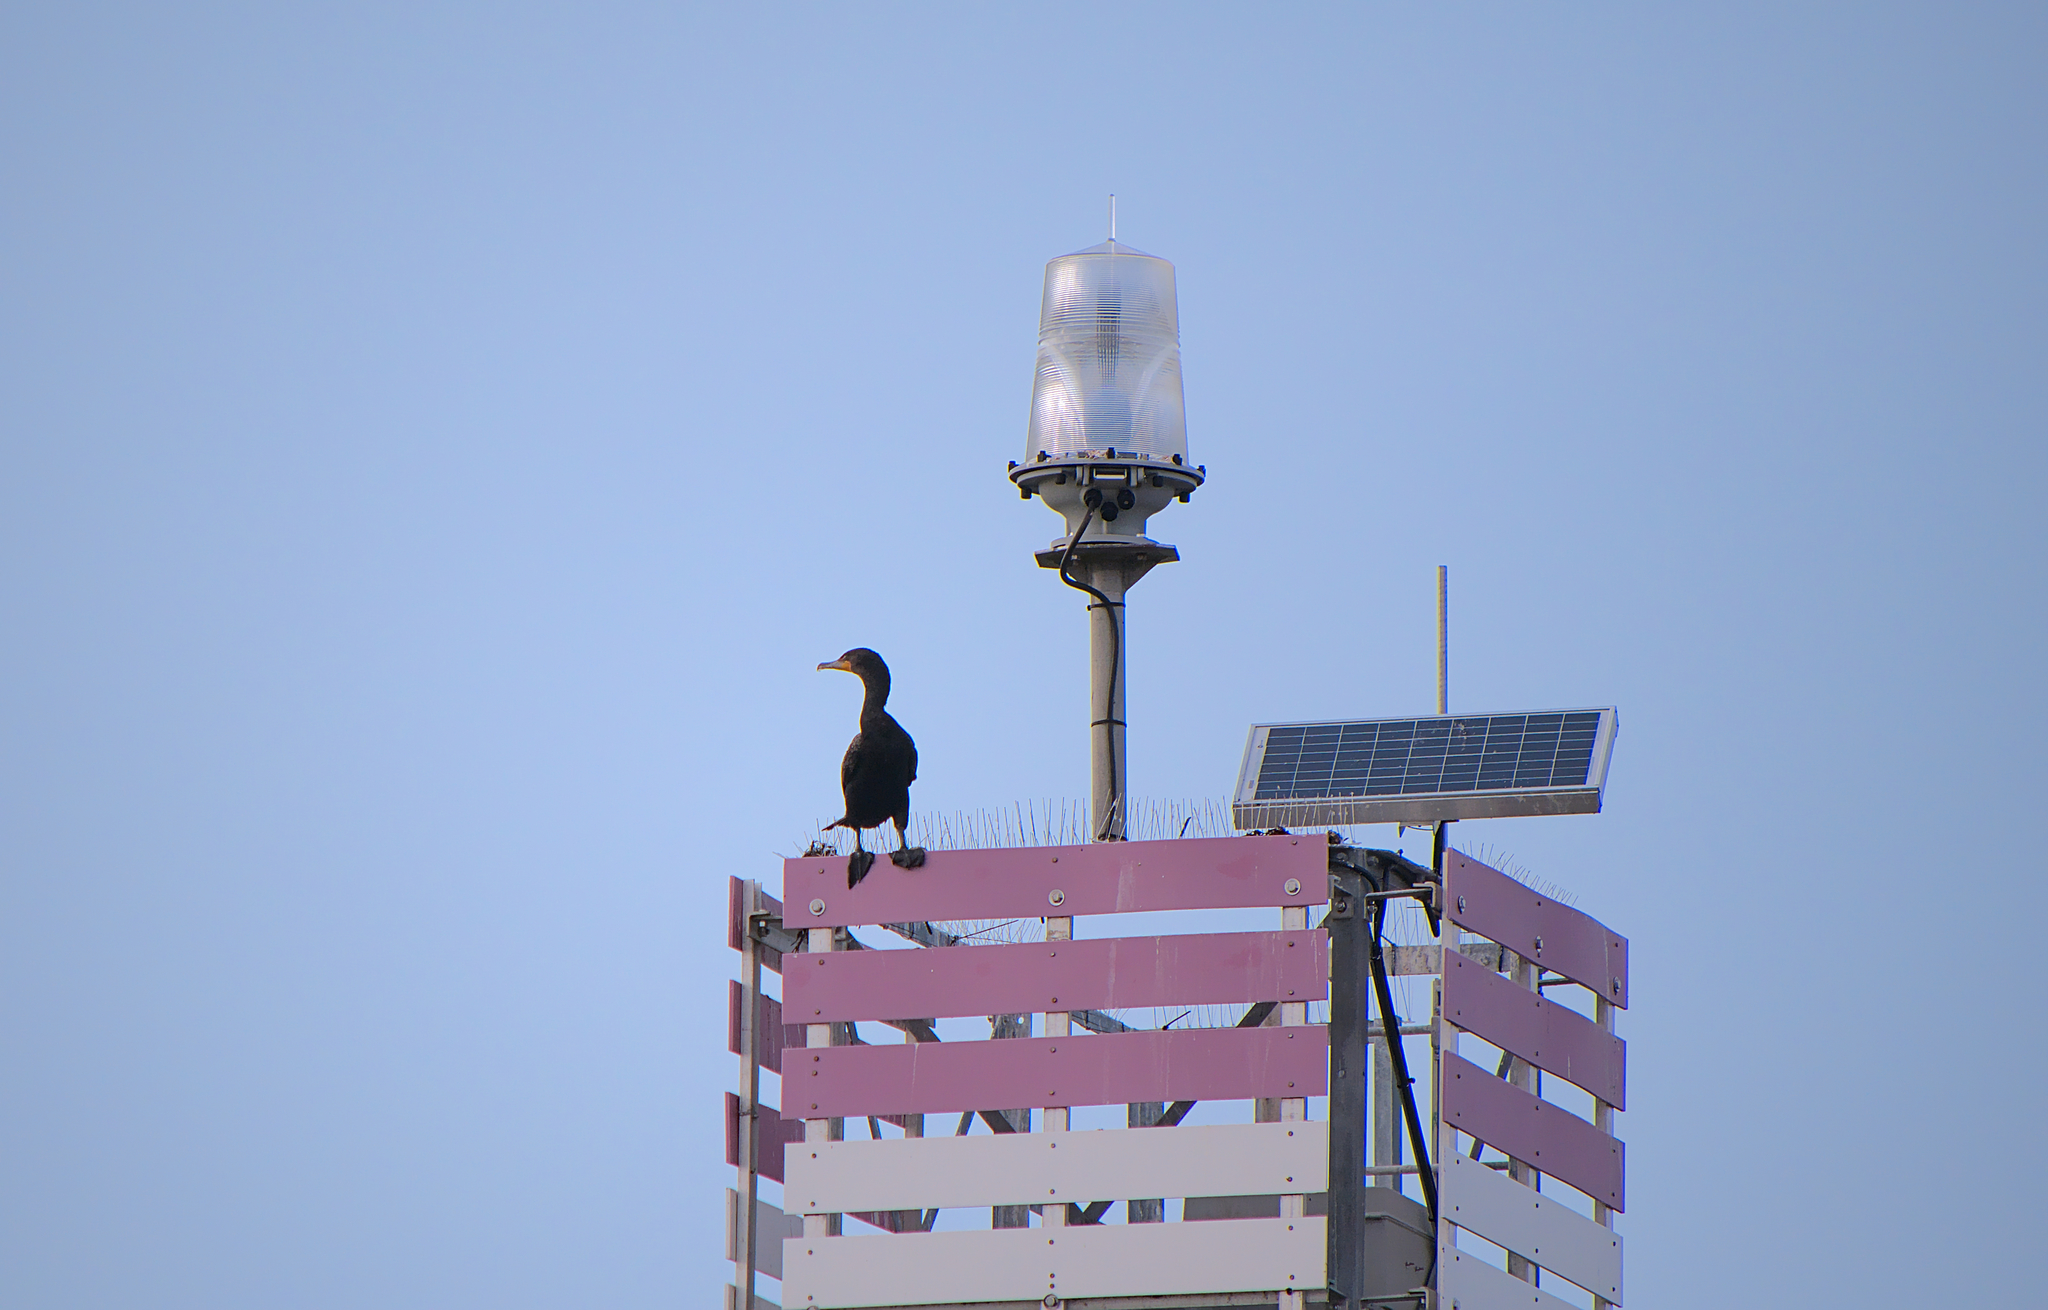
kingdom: Animalia
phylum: Chordata
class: Aves
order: Suliformes
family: Phalacrocoracidae
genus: Phalacrocorax
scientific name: Phalacrocorax auritus
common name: Double-crested cormorant
